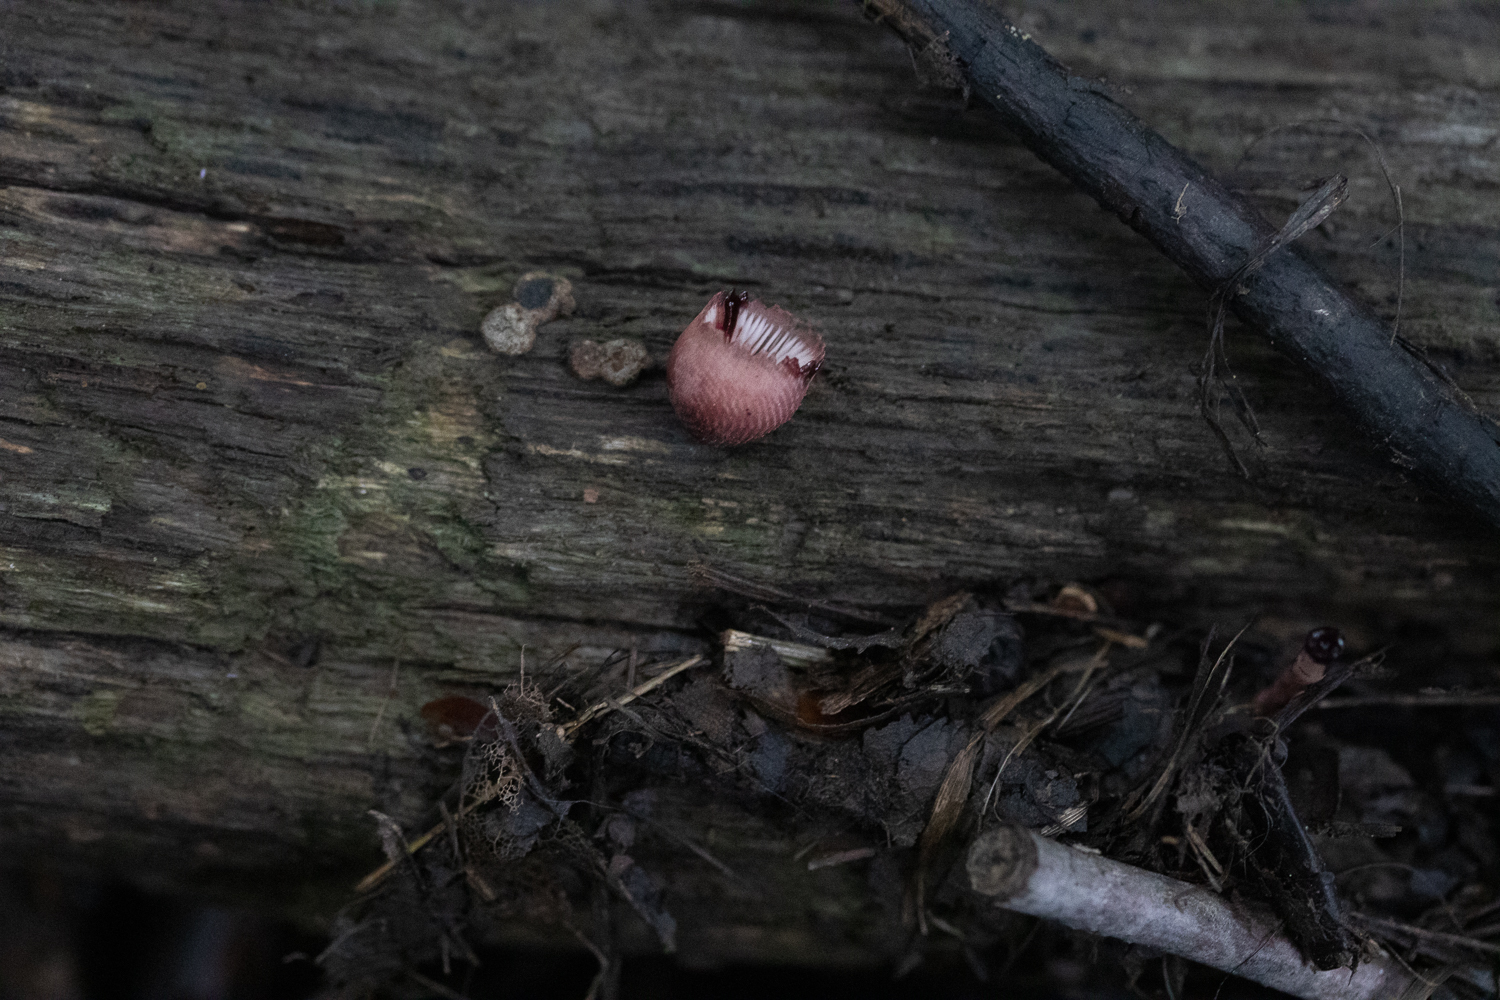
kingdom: Fungi
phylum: Basidiomycota
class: Agaricomycetes
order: Agaricales
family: Mycenaceae
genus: Mycena
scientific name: Mycena haematopus
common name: Burgundydrop bonnet
